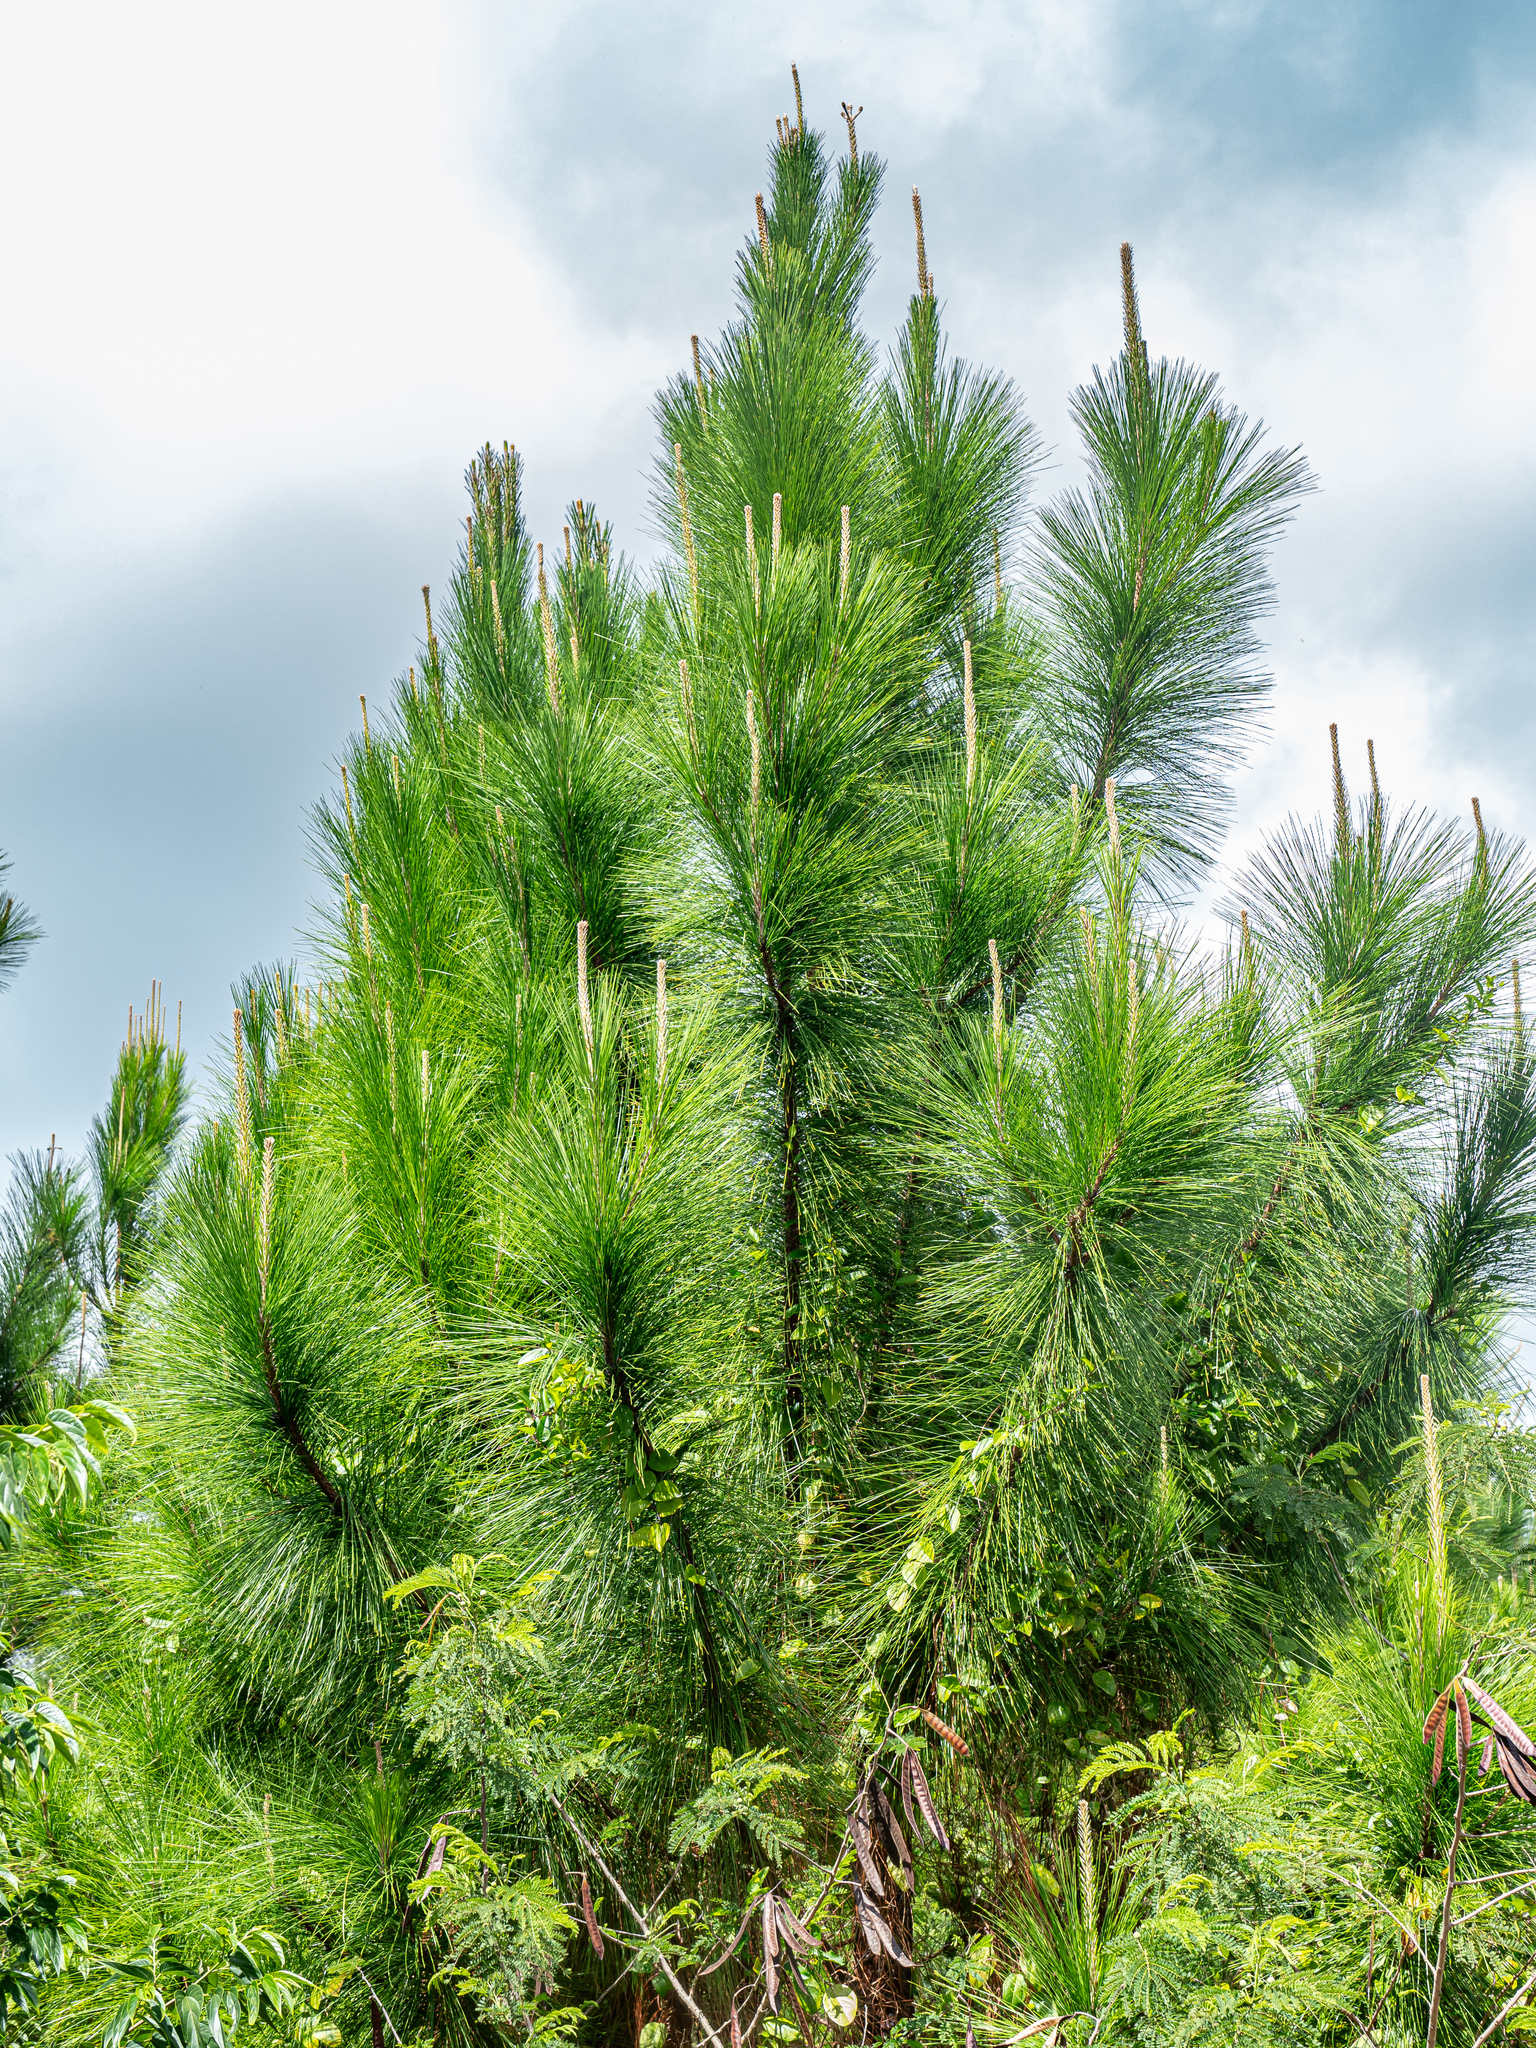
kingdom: Plantae
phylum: Tracheophyta
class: Pinopsida
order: Pinales
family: Pinaceae
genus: Pinus
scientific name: Pinus caribaea
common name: Caribbean pine
